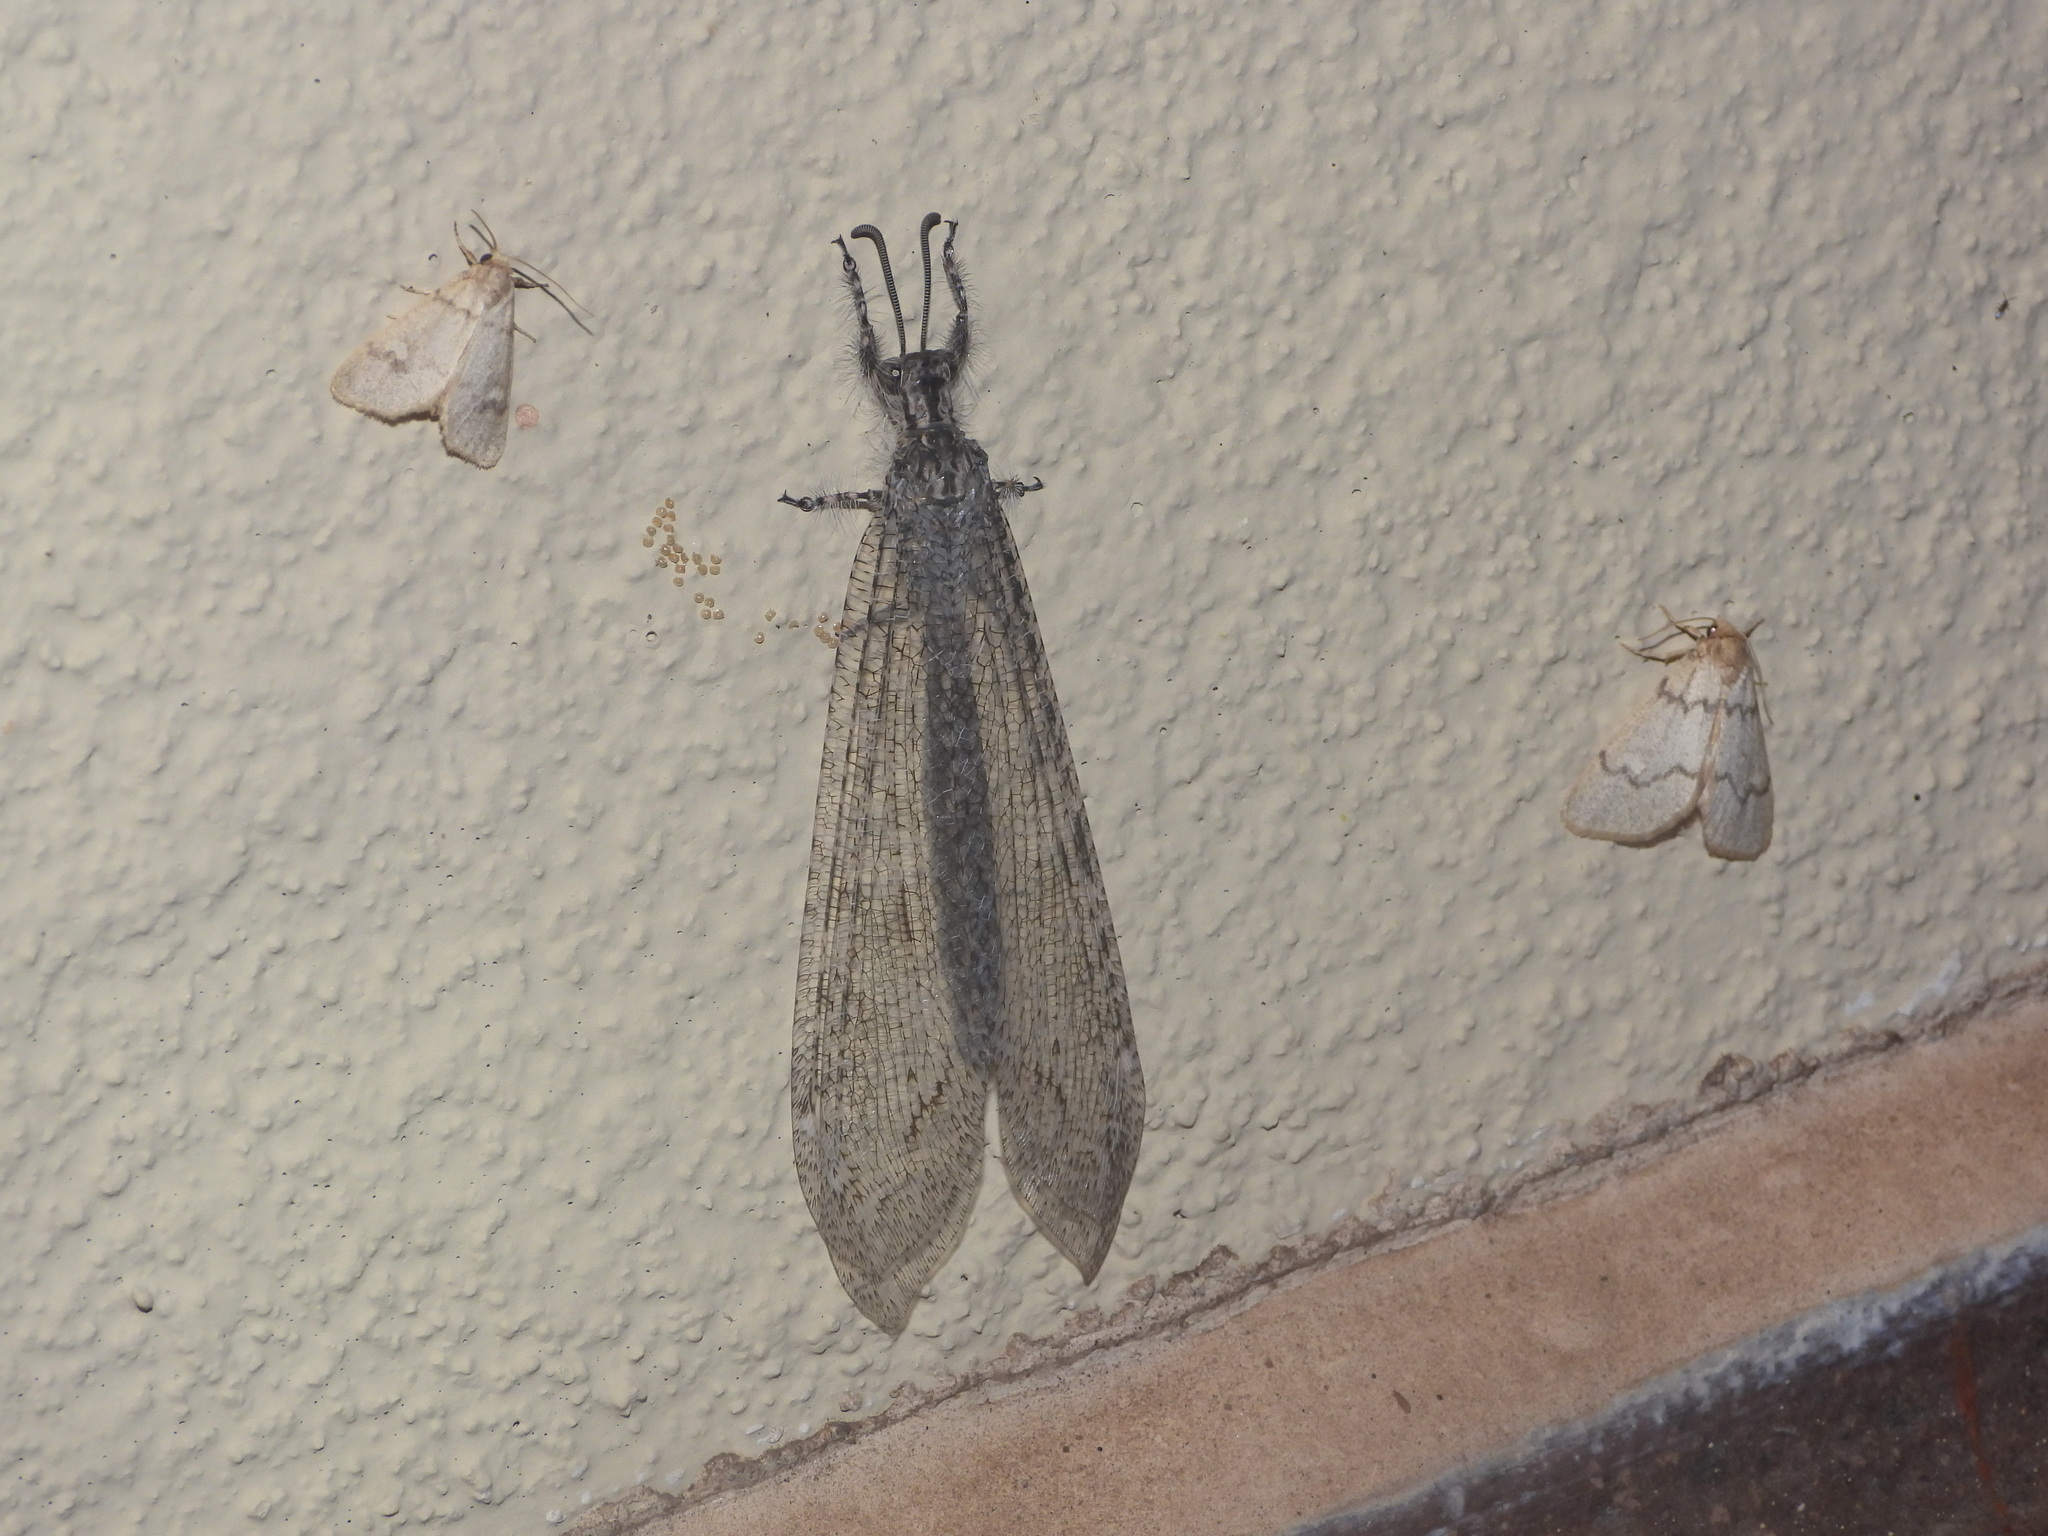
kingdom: Animalia
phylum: Arthropoda
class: Insecta
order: Neuroptera
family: Myrmeleontidae
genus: Vella
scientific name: Vella fallax
